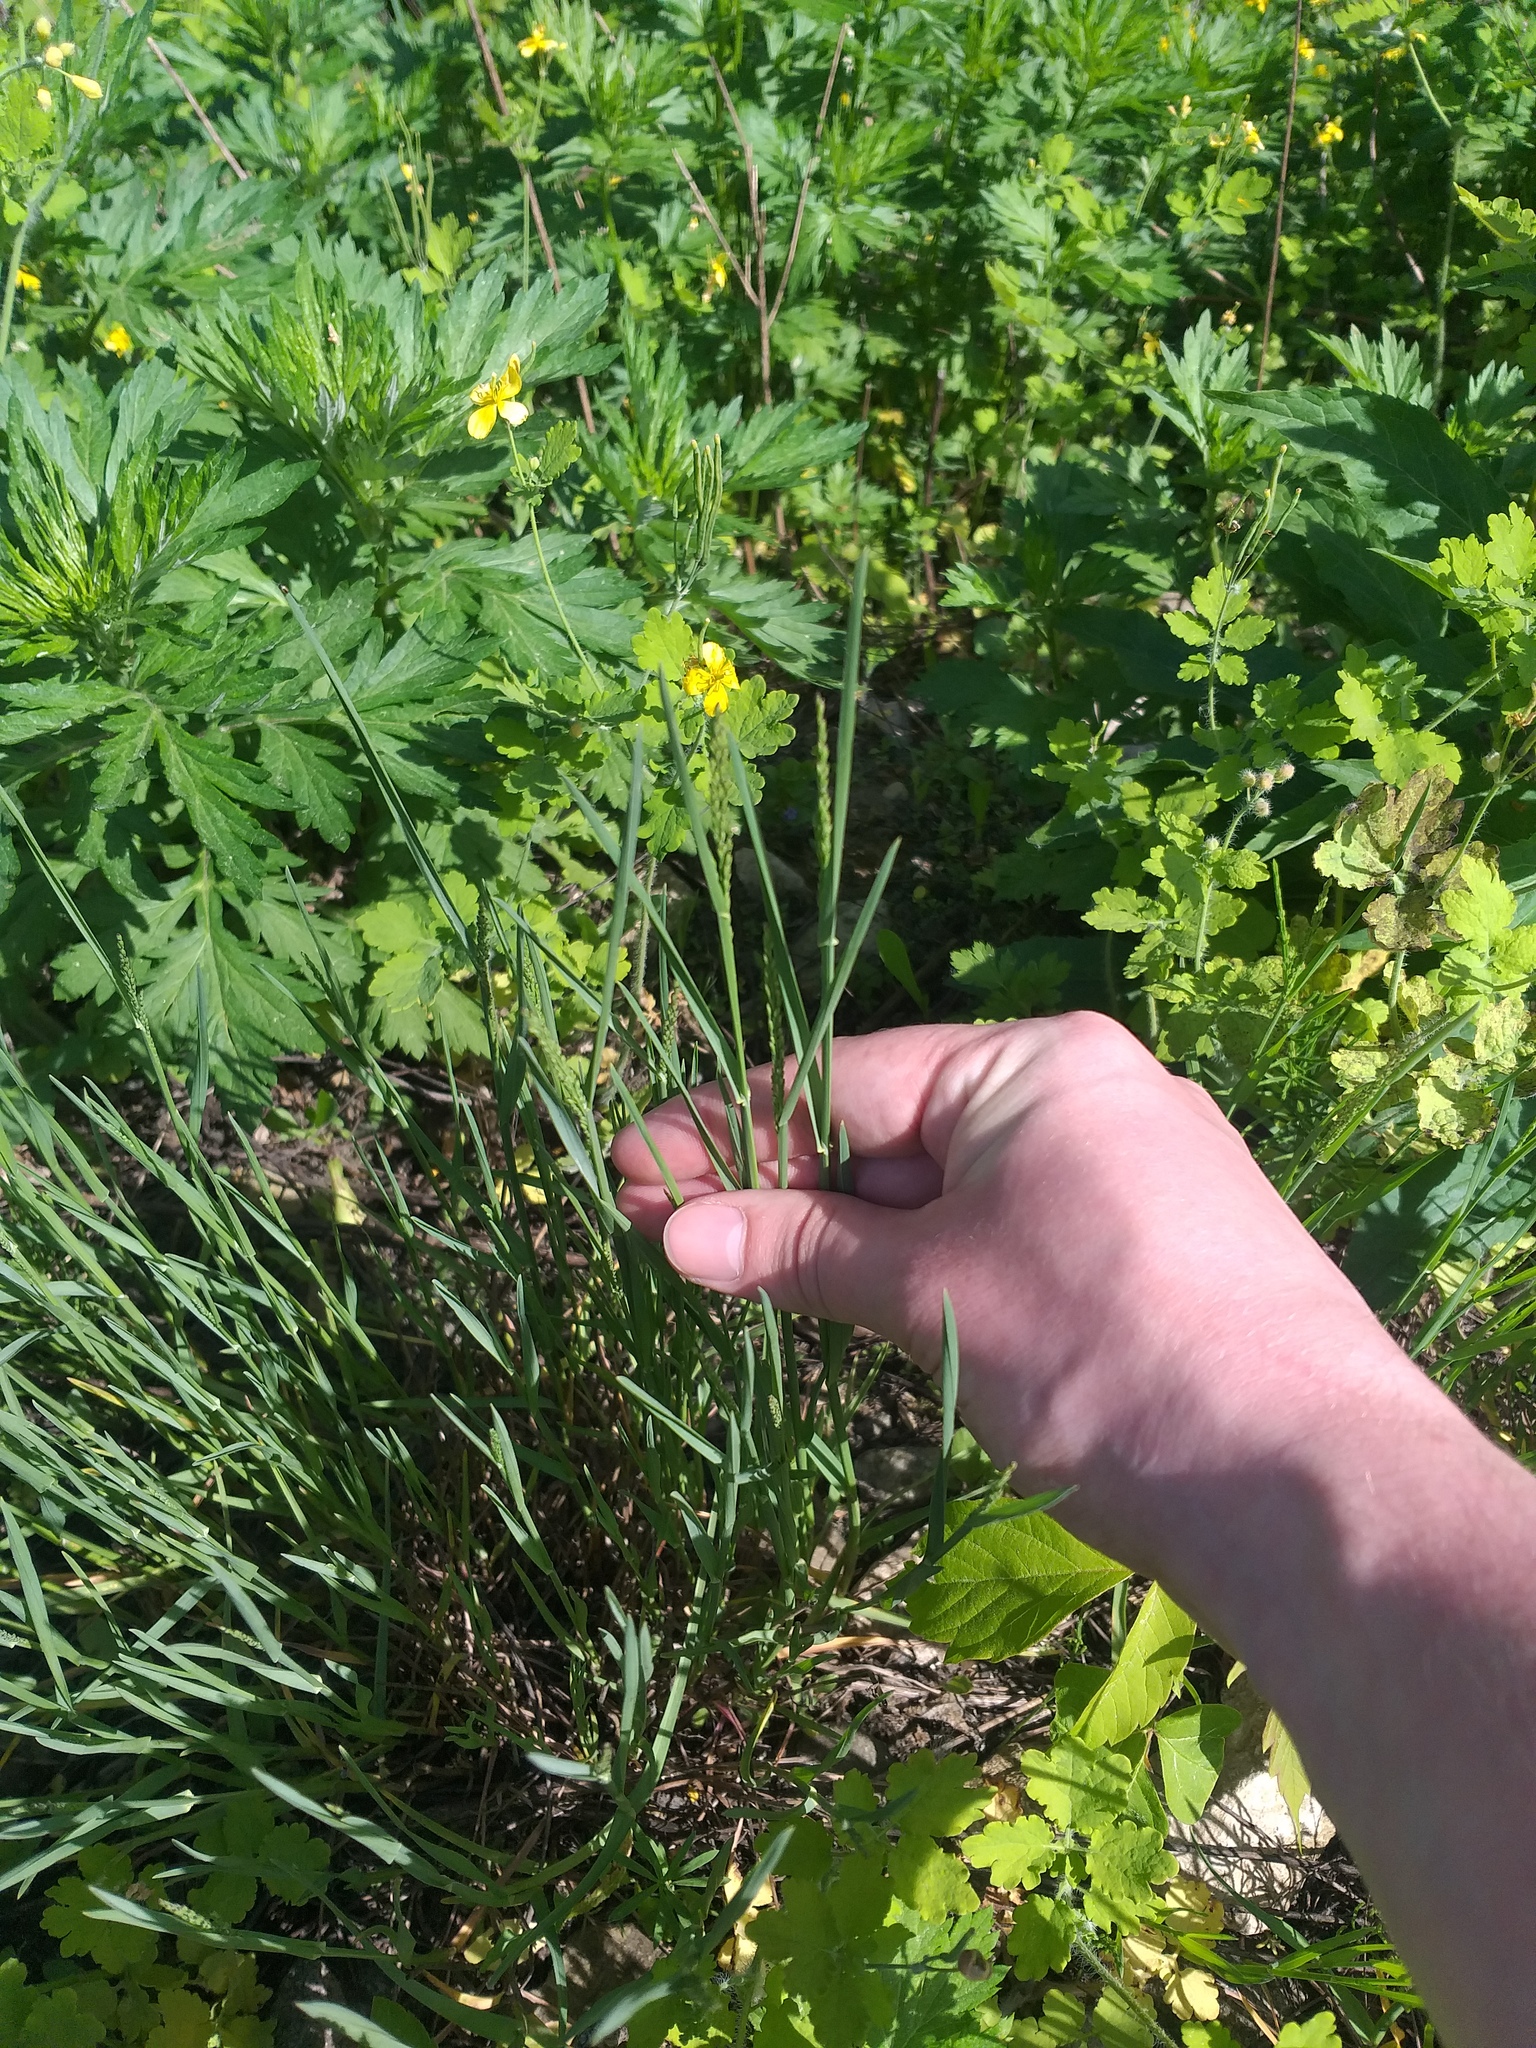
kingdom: Plantae
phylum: Tracheophyta
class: Liliopsida
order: Poales
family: Poaceae
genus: Poa
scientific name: Poa compressa
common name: Canada bluegrass
